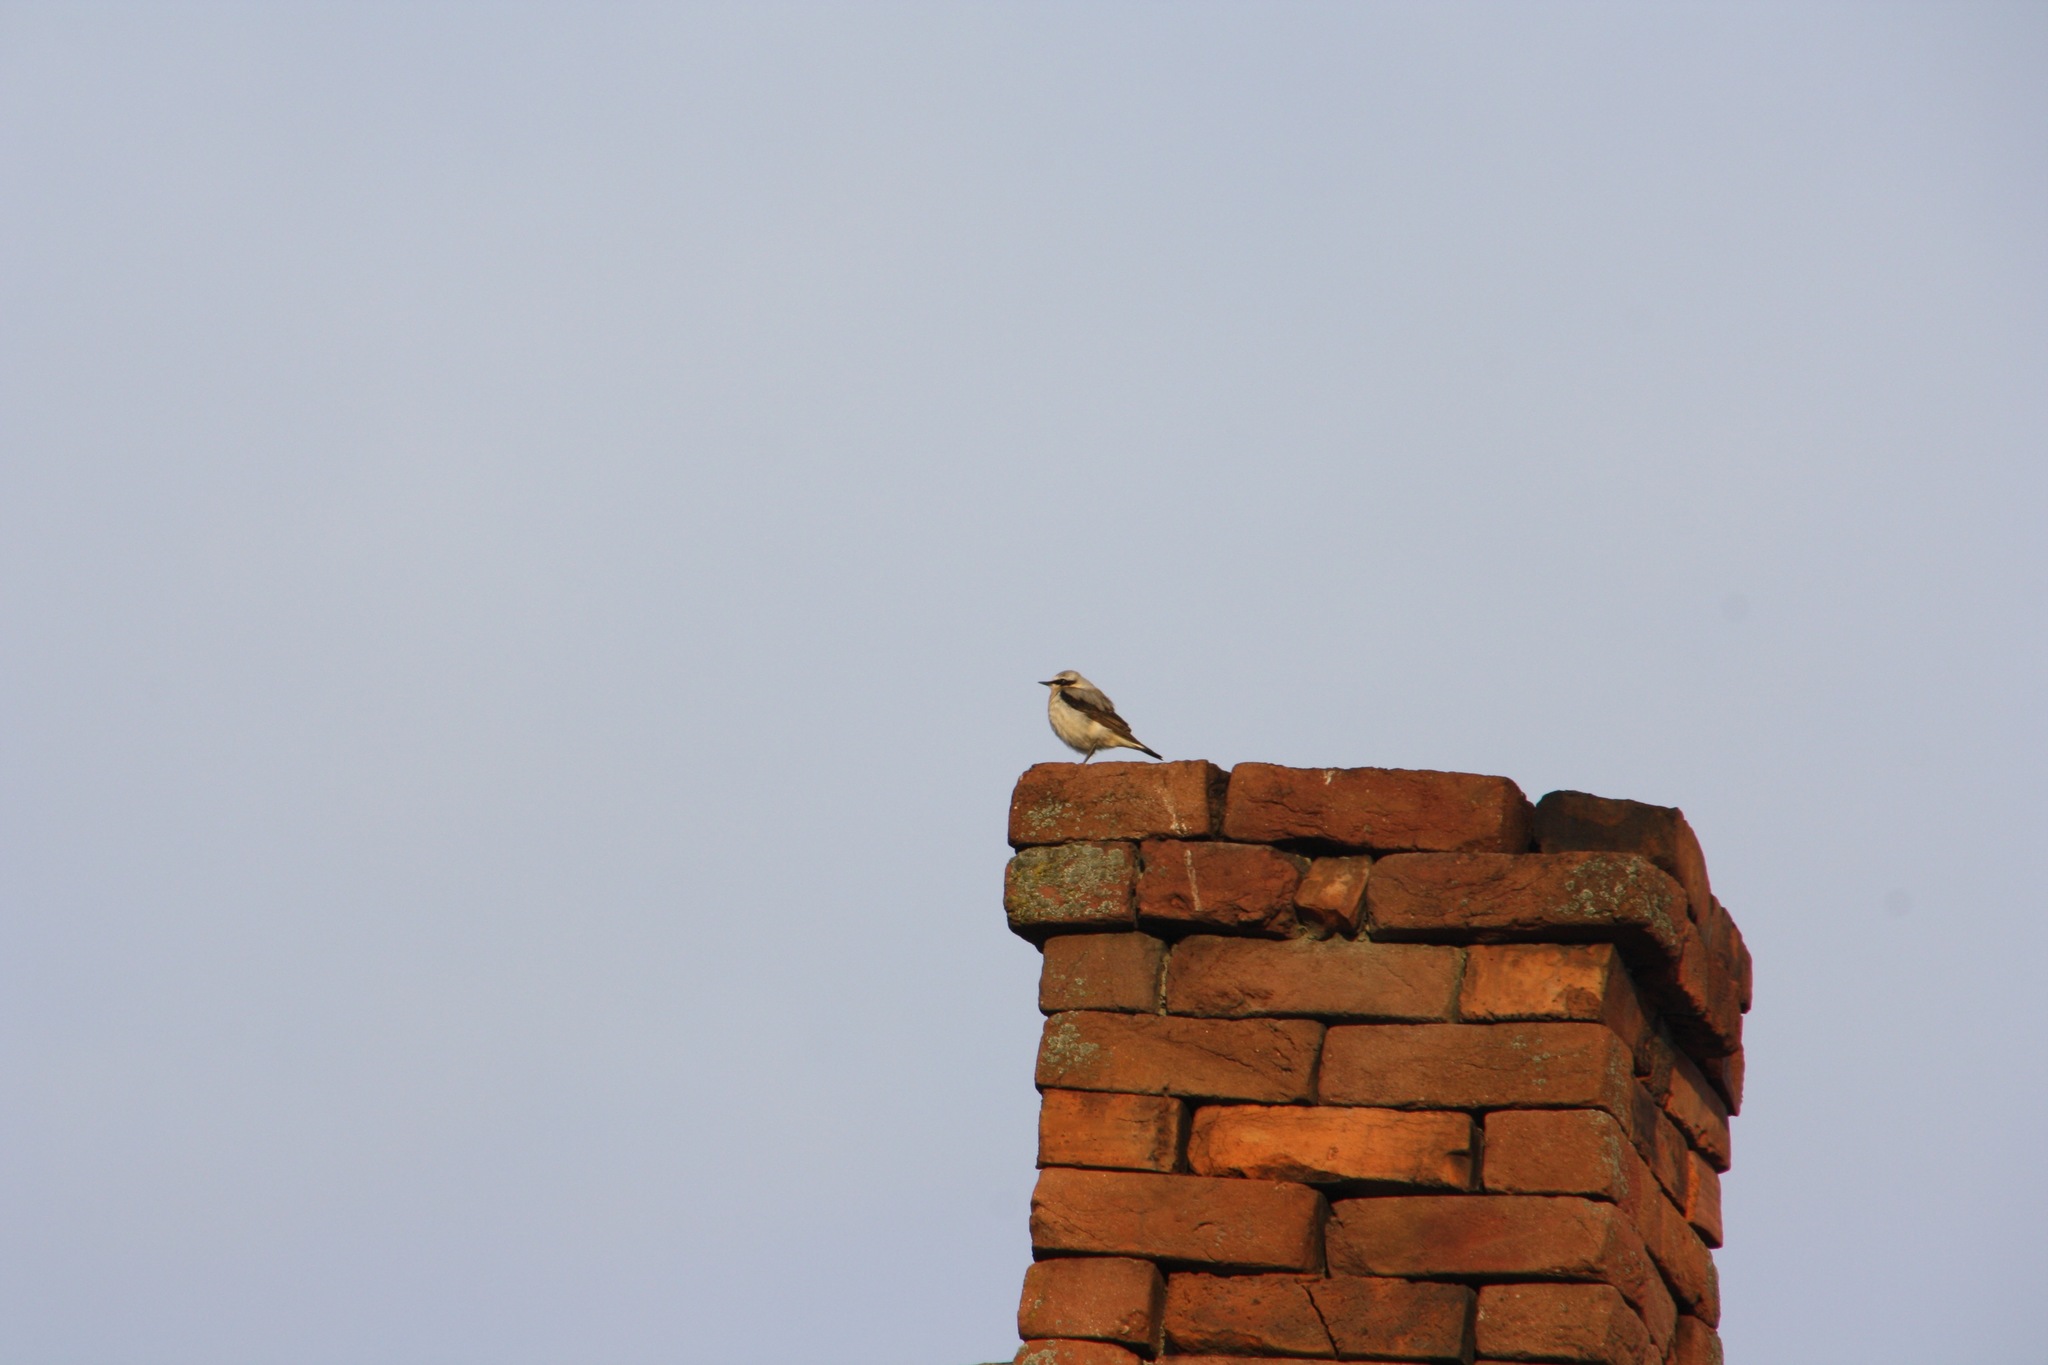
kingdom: Animalia
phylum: Chordata
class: Aves
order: Passeriformes
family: Muscicapidae
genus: Oenanthe
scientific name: Oenanthe oenanthe
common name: Northern wheatear
